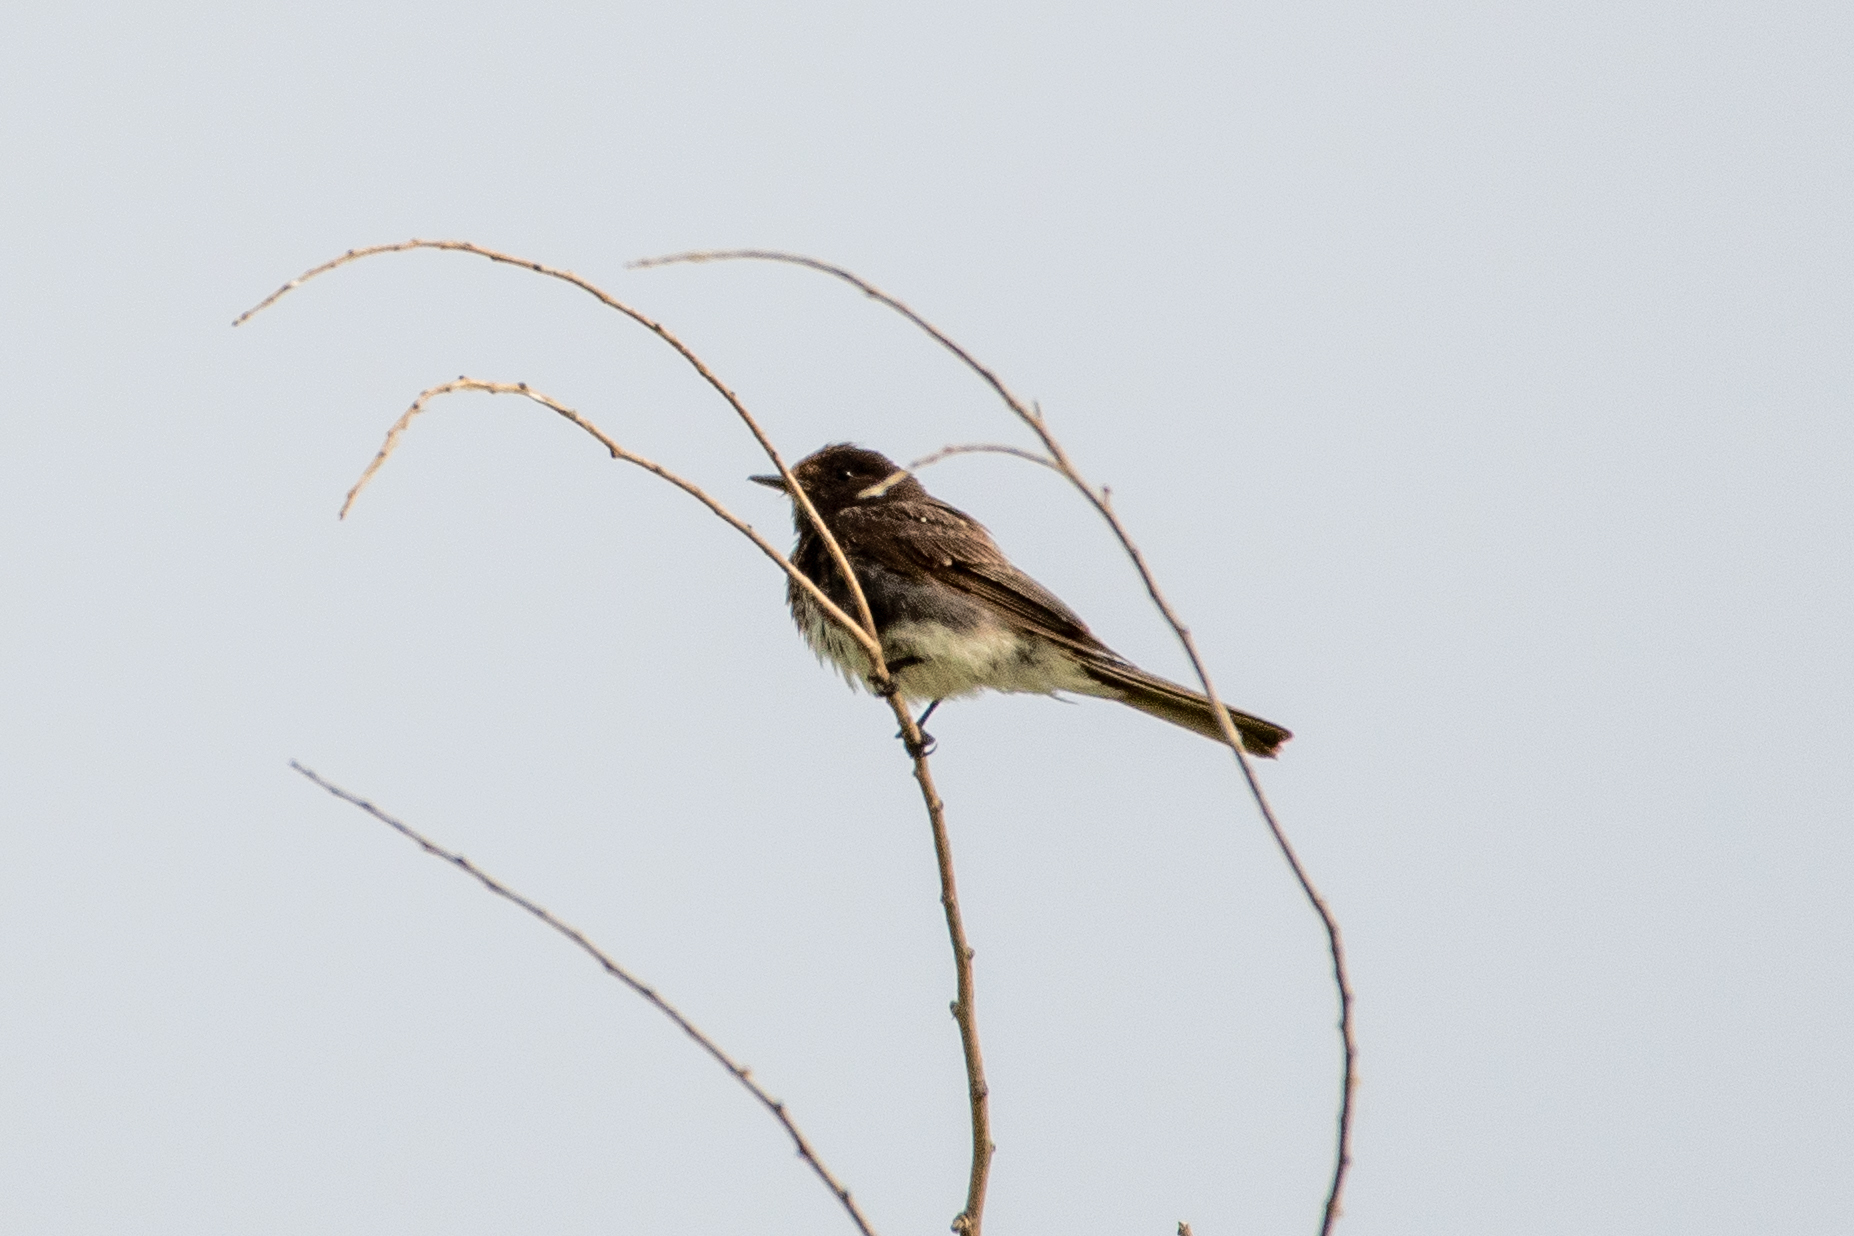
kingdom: Animalia
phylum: Chordata
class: Aves
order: Passeriformes
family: Tyrannidae
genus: Sayornis
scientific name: Sayornis nigricans
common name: Black phoebe
